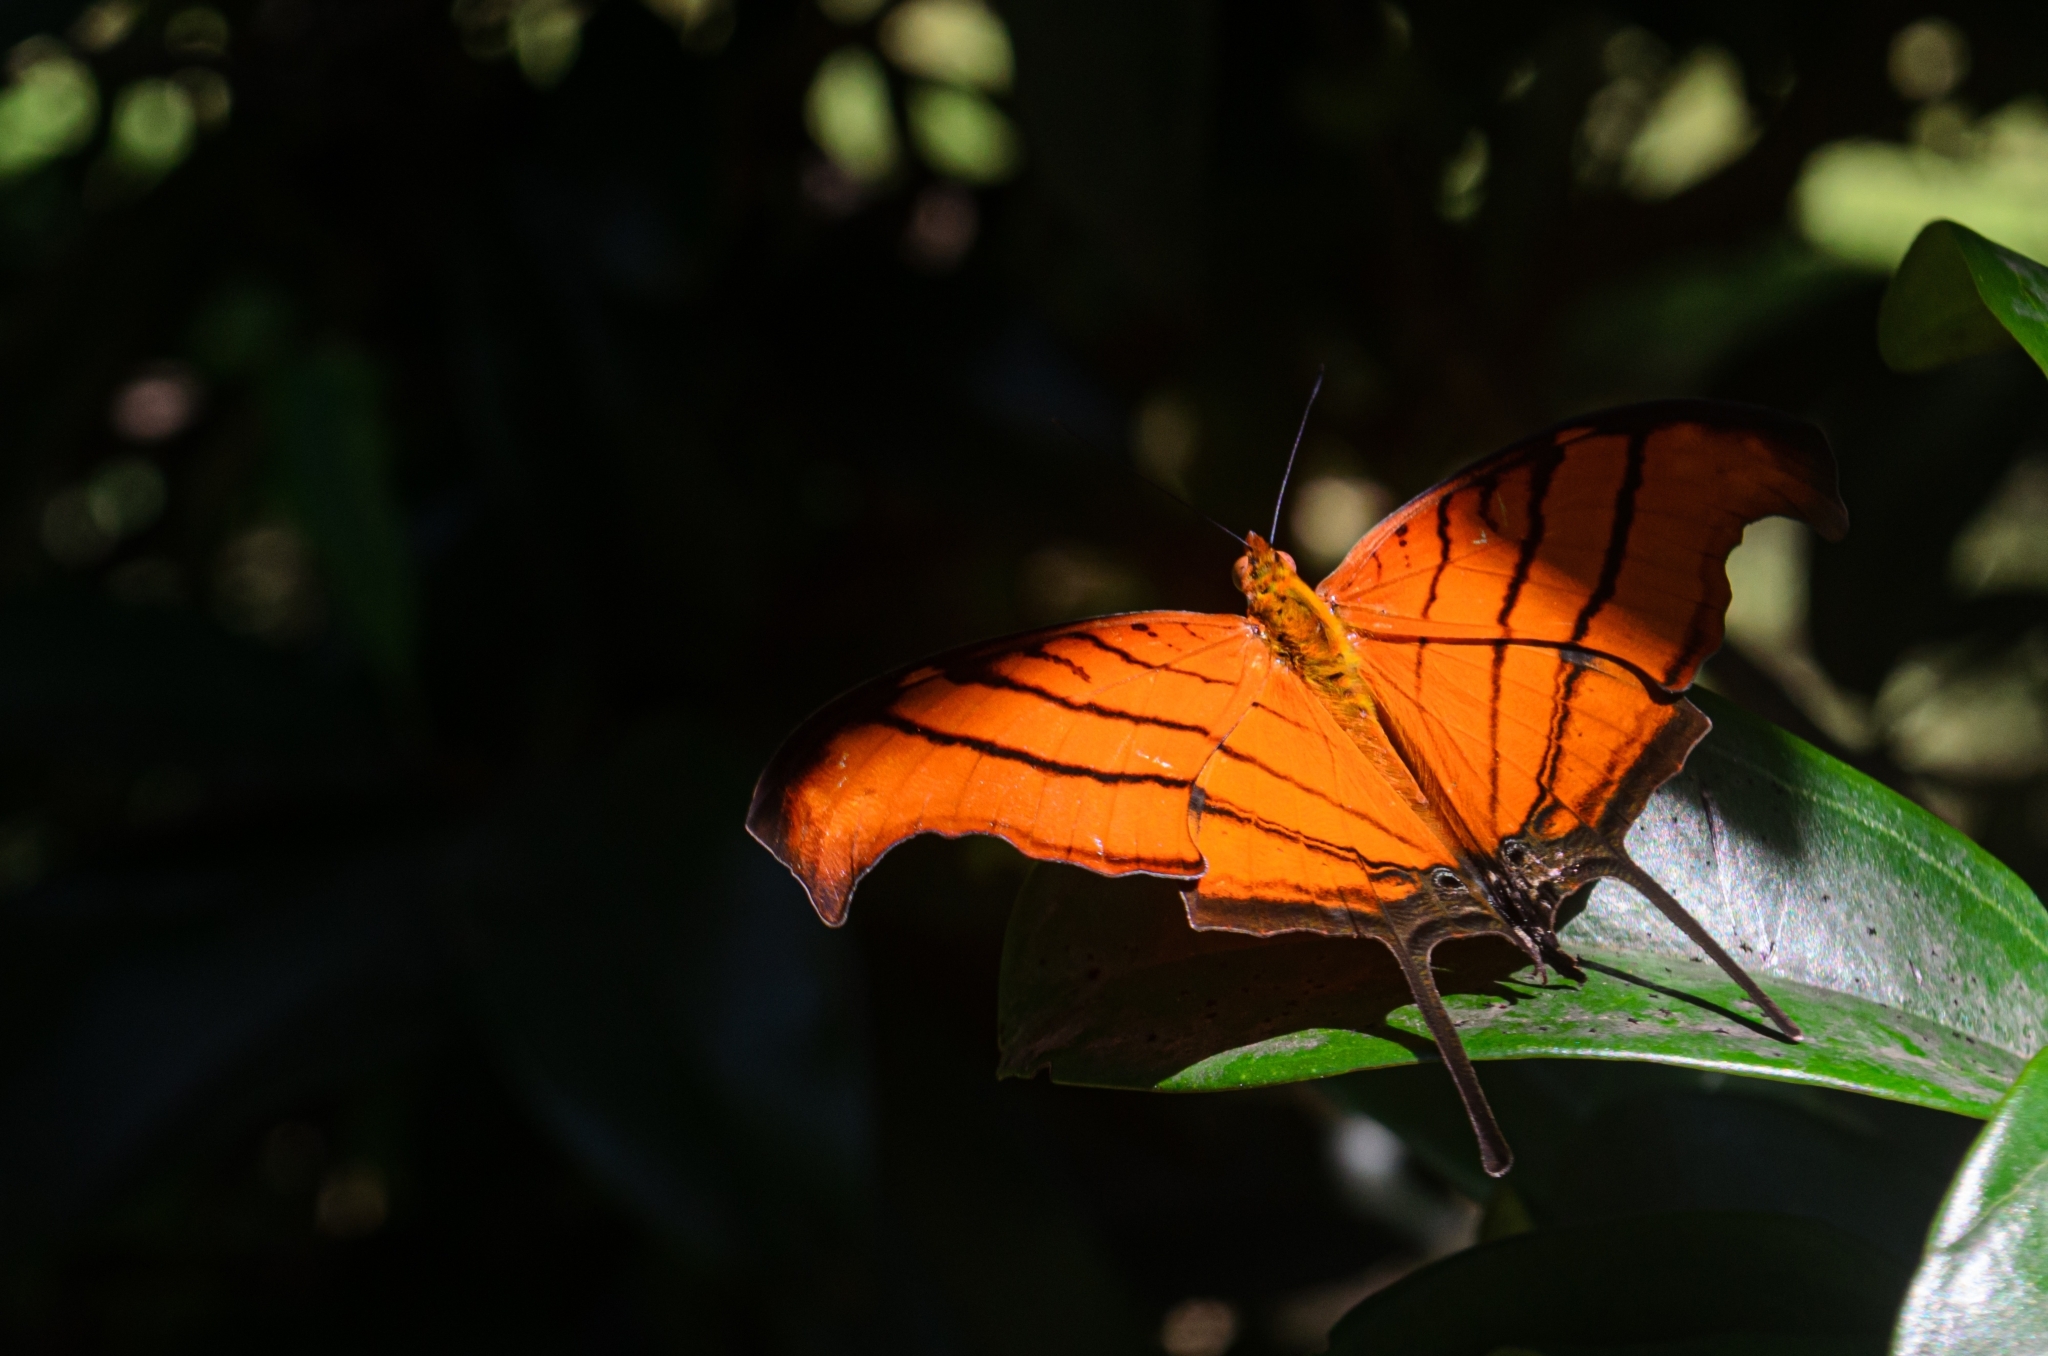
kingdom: Animalia
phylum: Arthropoda
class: Insecta
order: Lepidoptera
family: Nymphalidae
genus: Marpesia
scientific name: Marpesia petreus
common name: Red dagger wing
